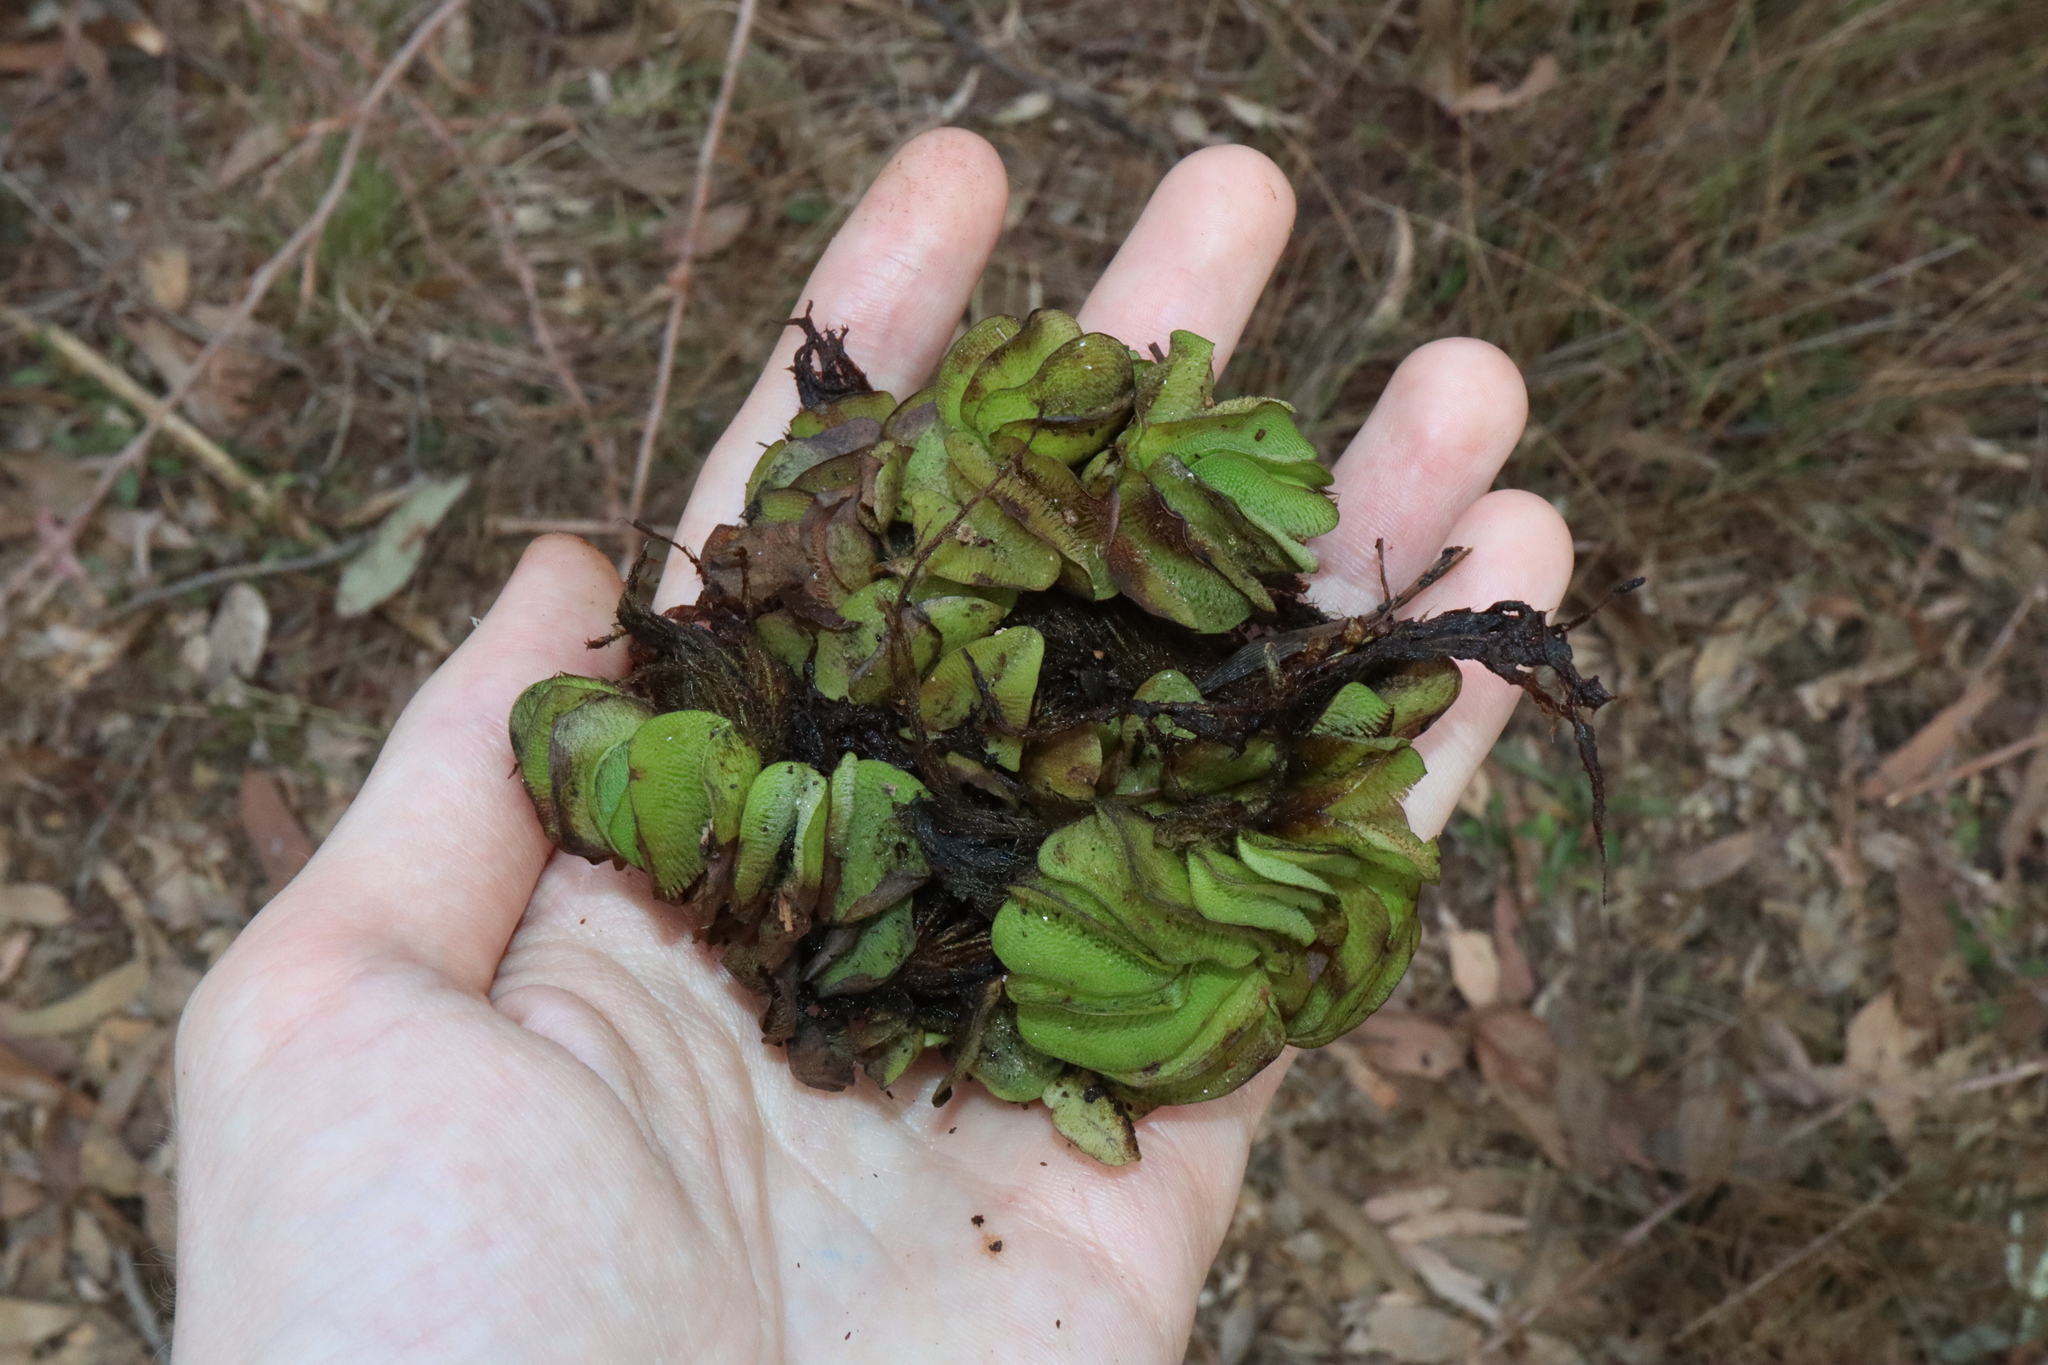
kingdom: Plantae
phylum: Tracheophyta
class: Polypodiopsida
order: Salviniales
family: Salviniaceae
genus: Salvinia
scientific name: Salvinia molesta
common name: Kariba weed
